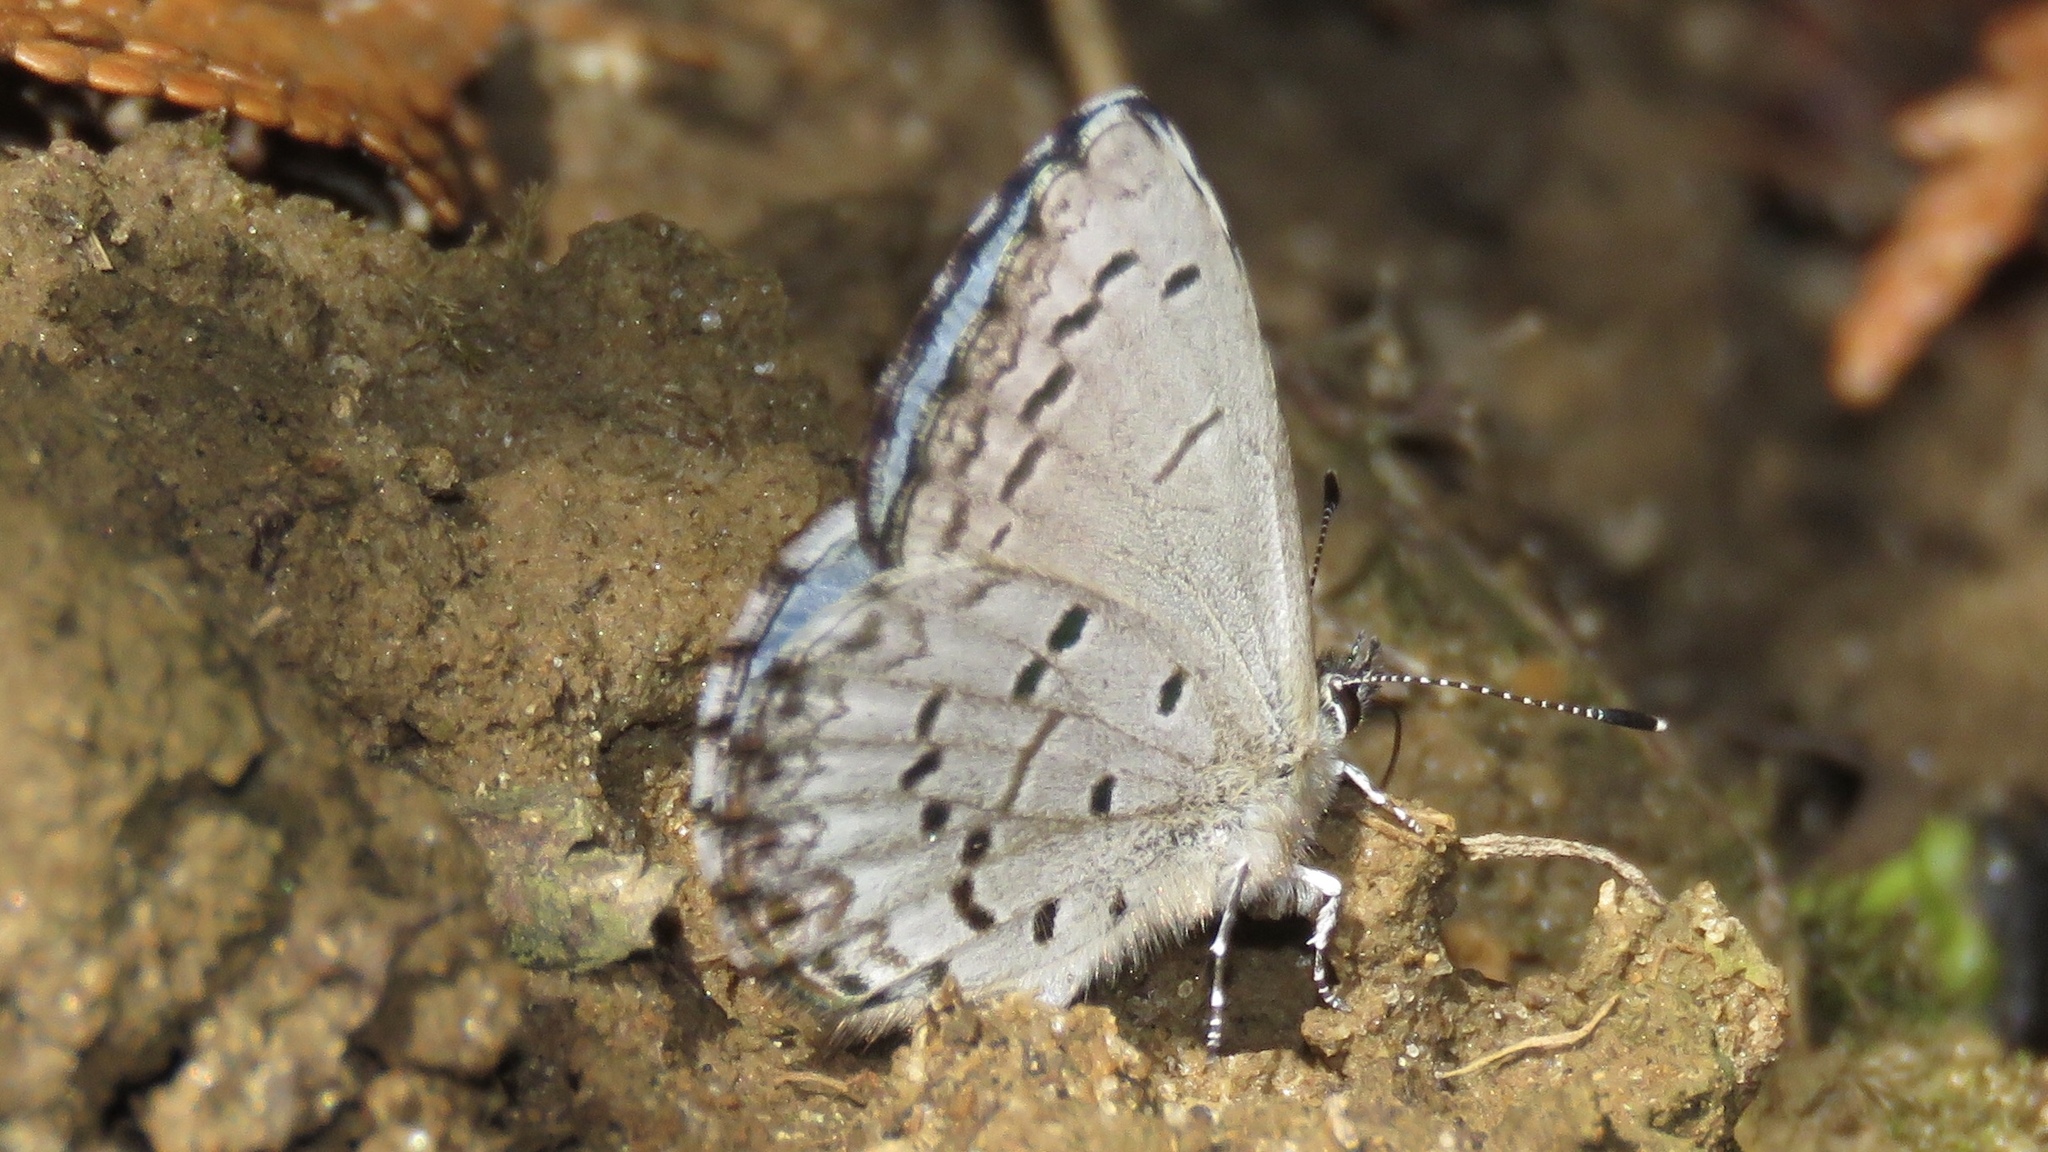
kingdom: Animalia
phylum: Arthropoda
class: Insecta
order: Lepidoptera
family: Lycaenidae
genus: Celastrina
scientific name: Celastrina lucia
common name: Lucia azure
